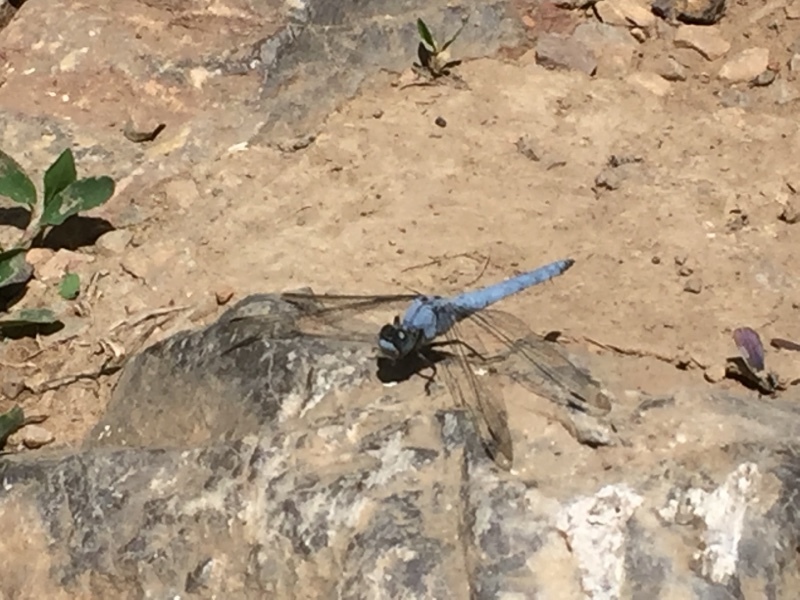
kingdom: Animalia
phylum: Arthropoda
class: Insecta
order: Odonata
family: Libellulidae
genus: Orthetrum
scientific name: Orthetrum brunneum
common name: Southern skimmer
